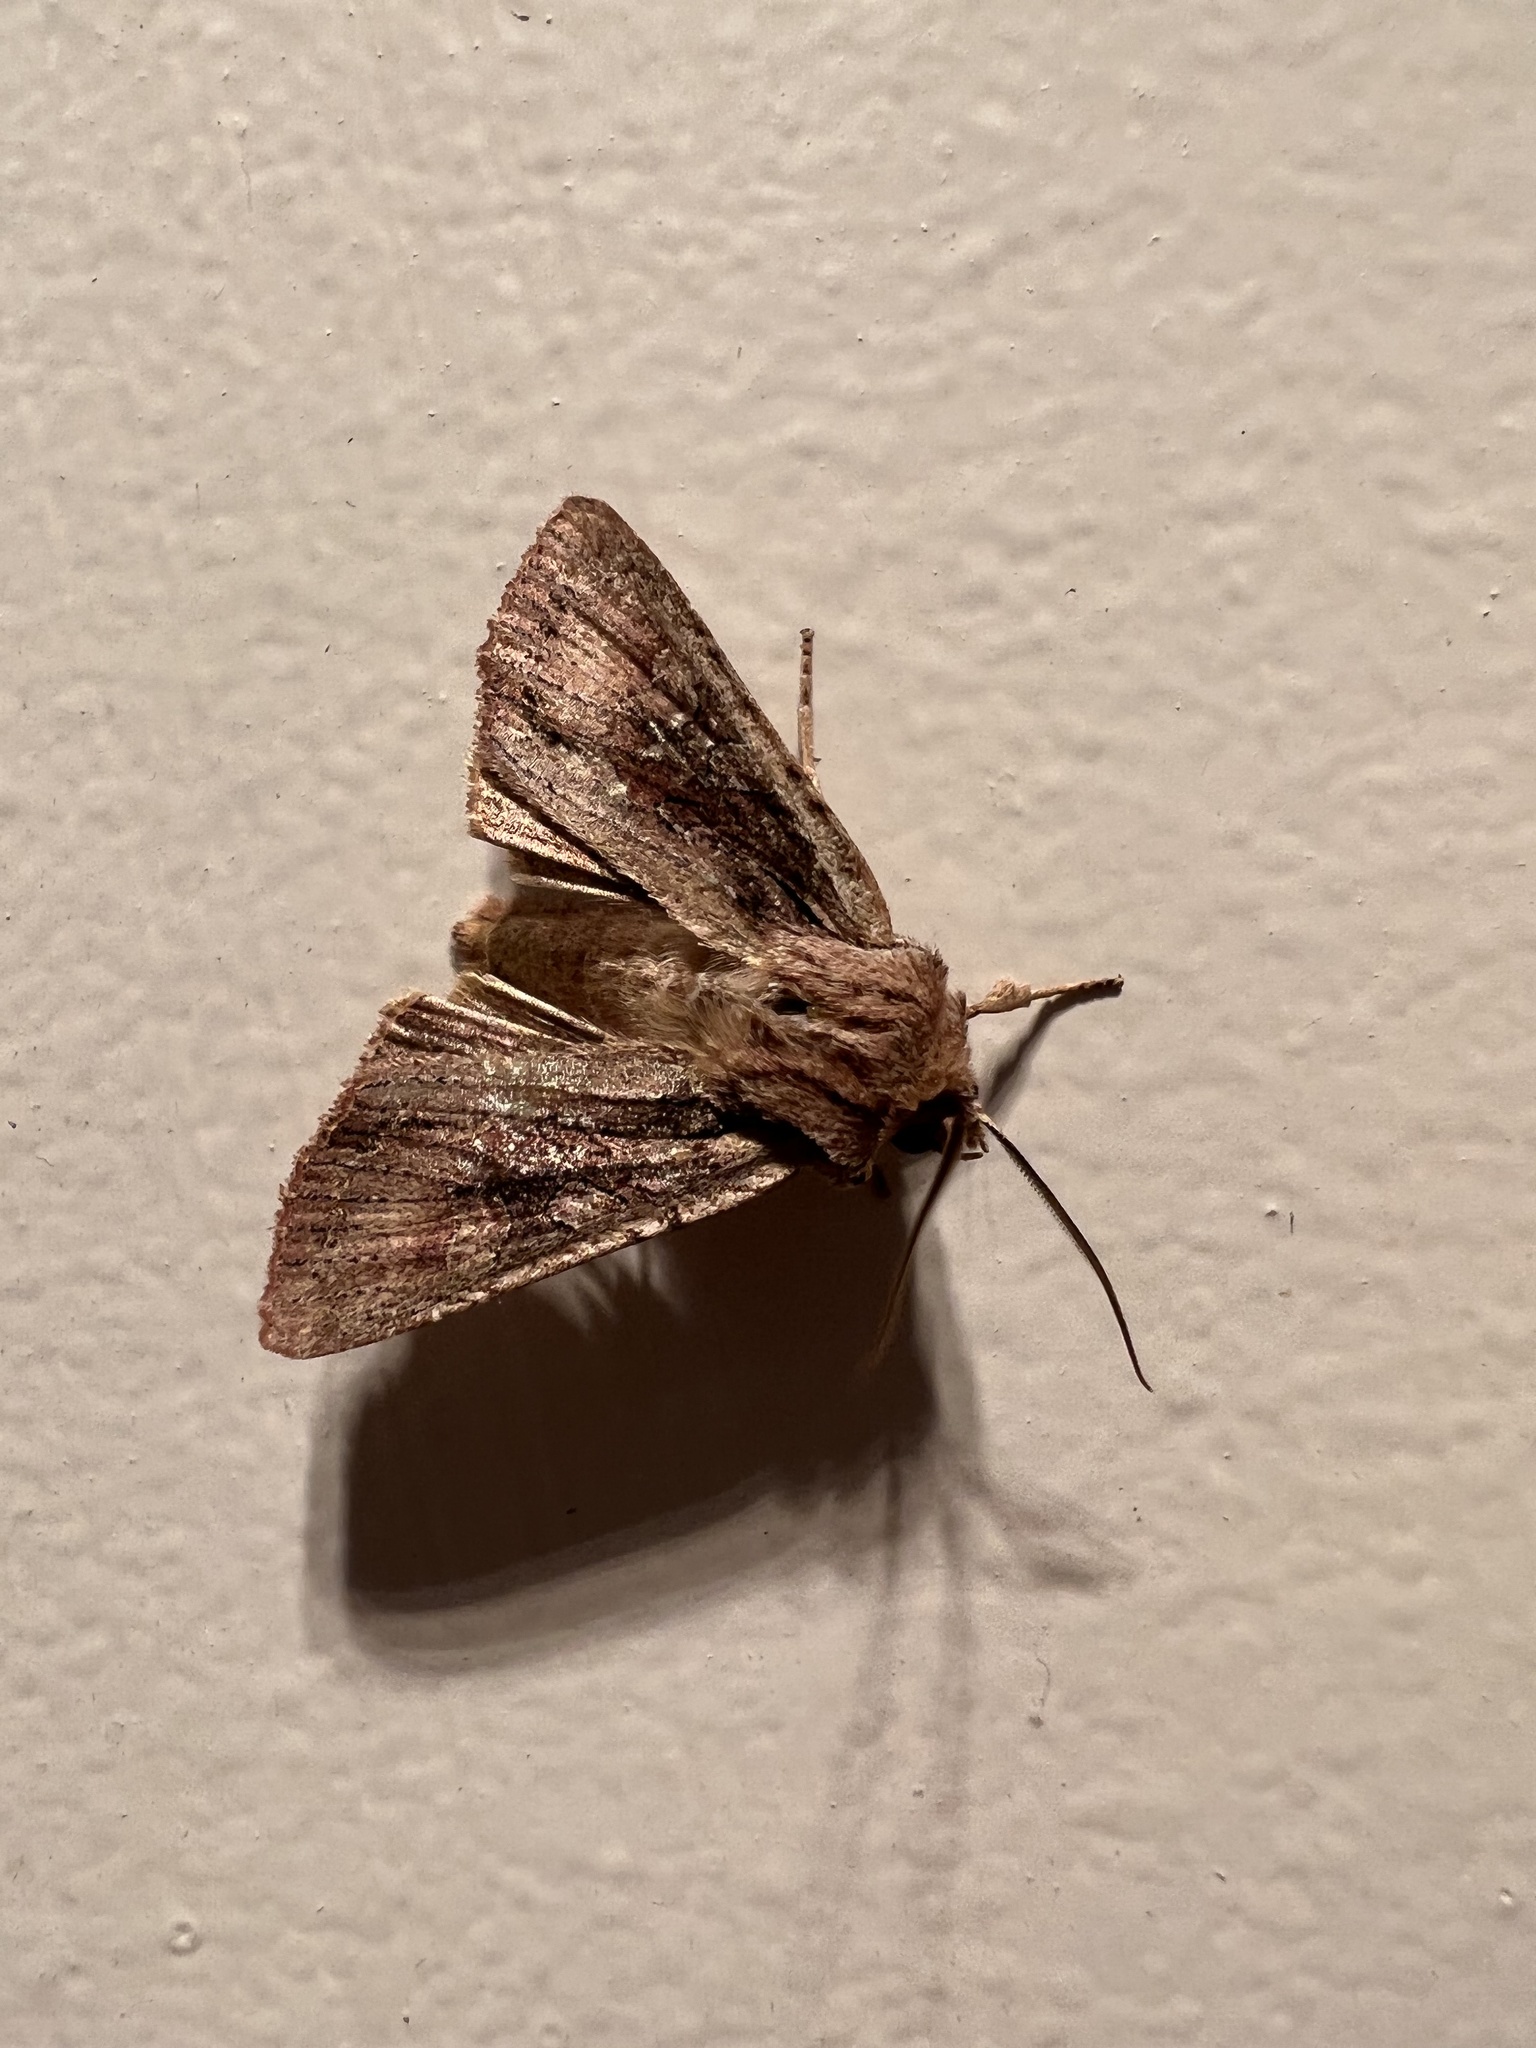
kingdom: Animalia
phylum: Arthropoda
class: Insecta
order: Lepidoptera
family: Noctuidae
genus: Ichneutica
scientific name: Ichneutica
